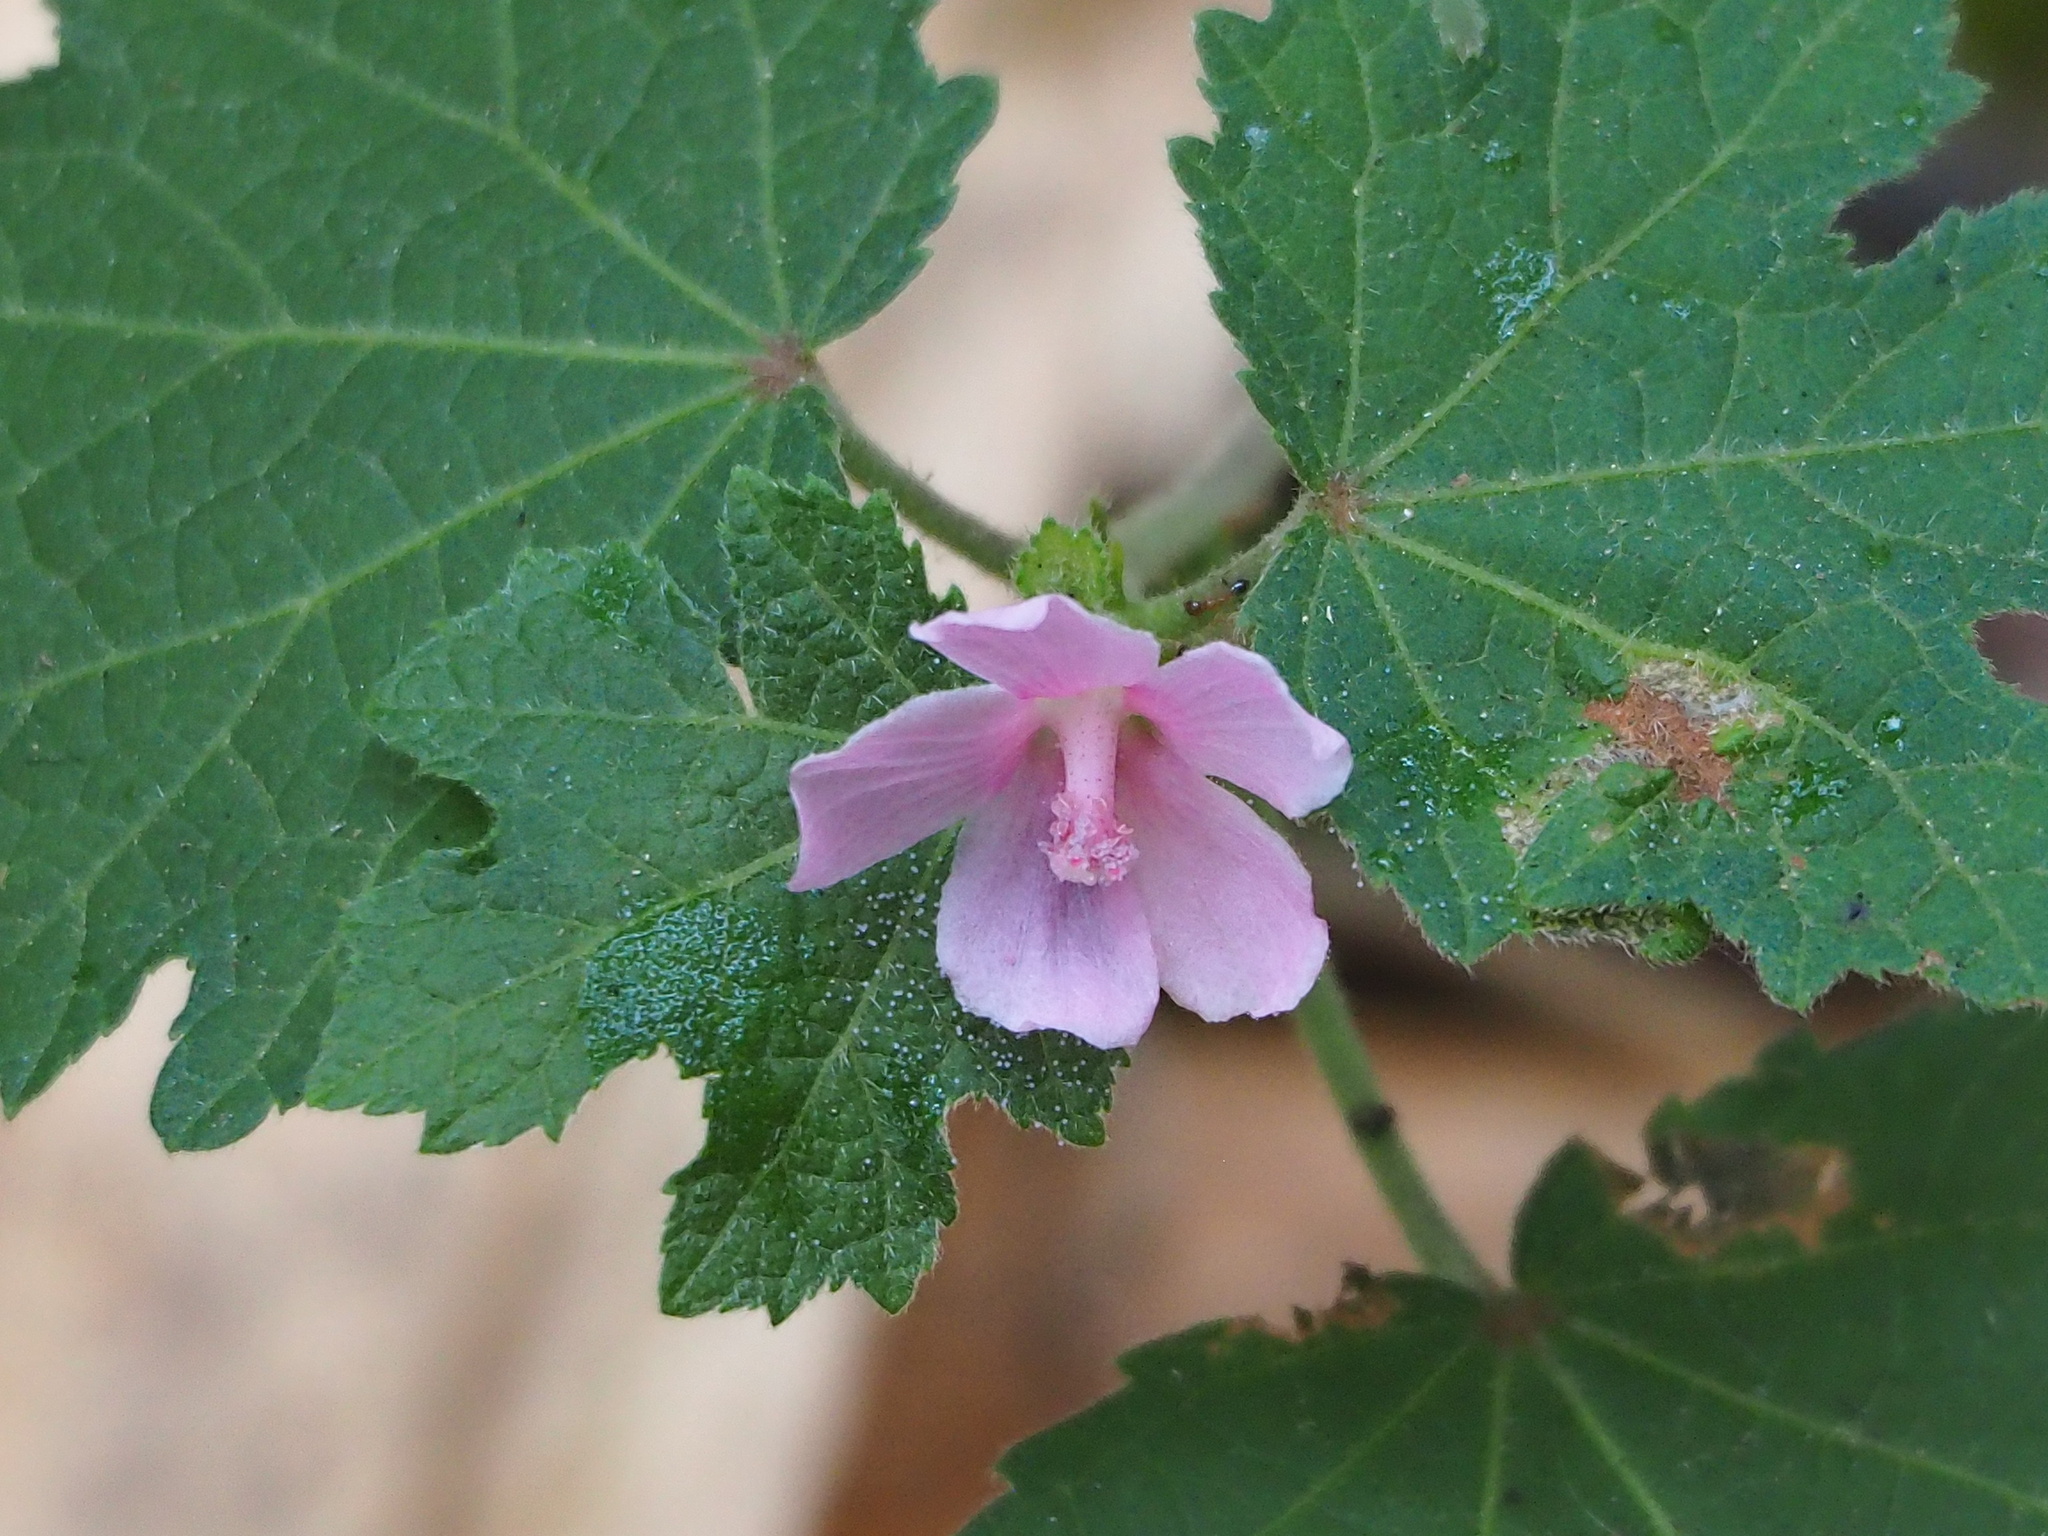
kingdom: Plantae
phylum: Tracheophyta
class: Magnoliopsida
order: Malvales
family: Malvaceae
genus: Urena
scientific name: Urena lobata
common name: Caesarweed
